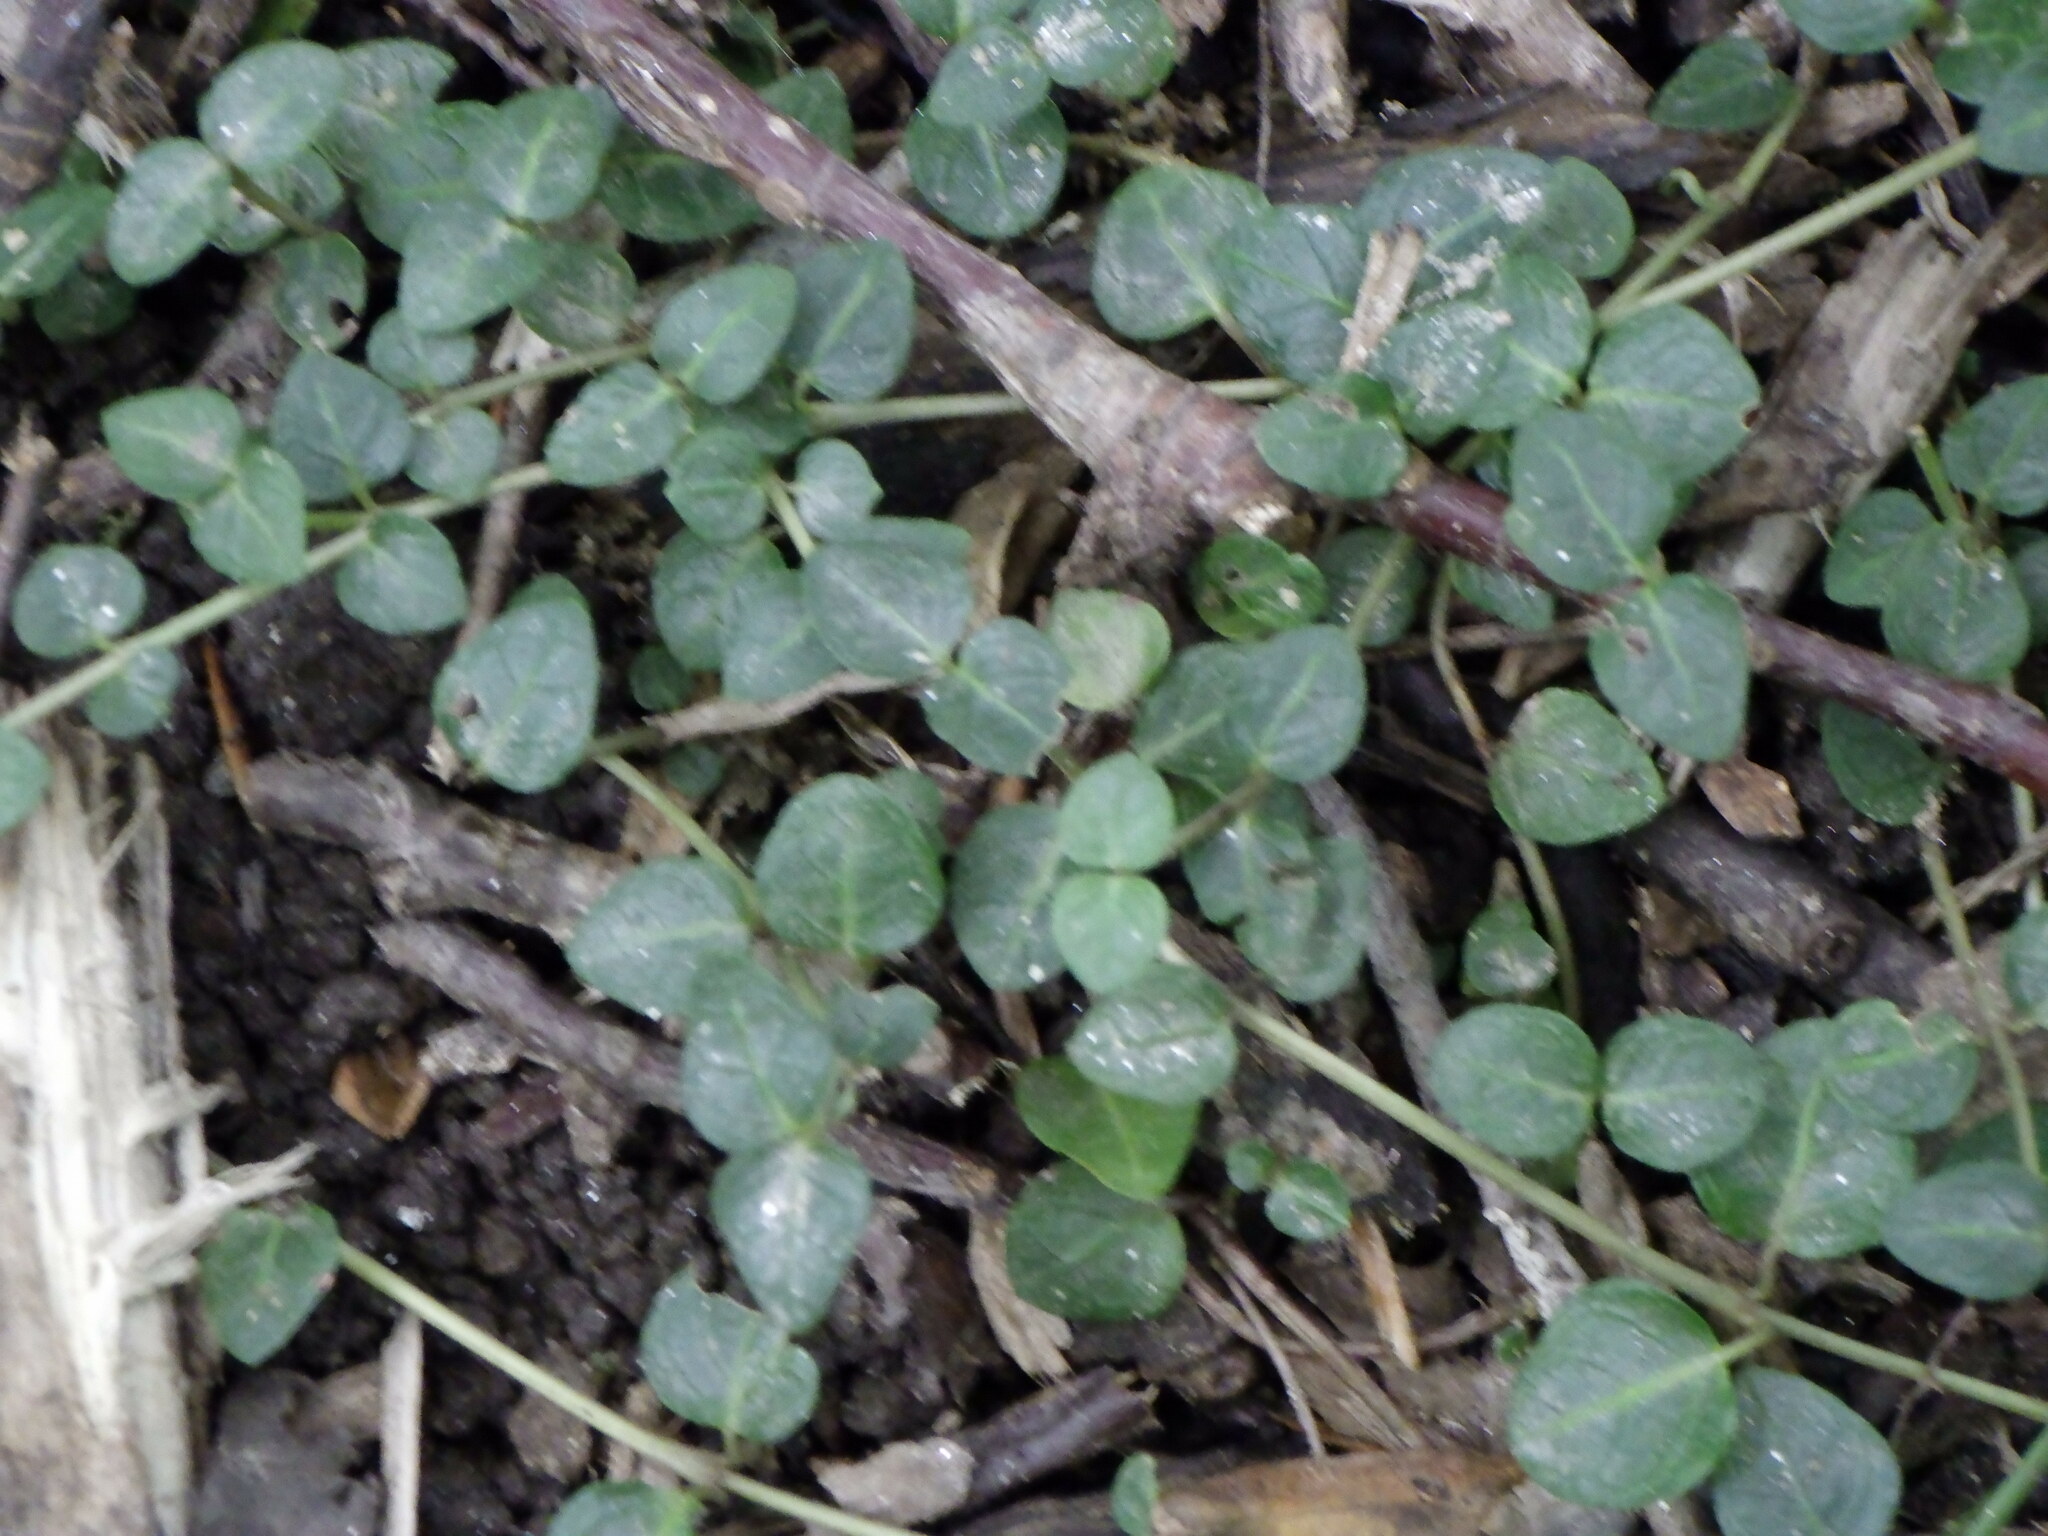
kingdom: Plantae
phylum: Tracheophyta
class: Magnoliopsida
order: Gentianales
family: Rubiaceae
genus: Mitchella
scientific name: Mitchella repens
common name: Partridge-berry
